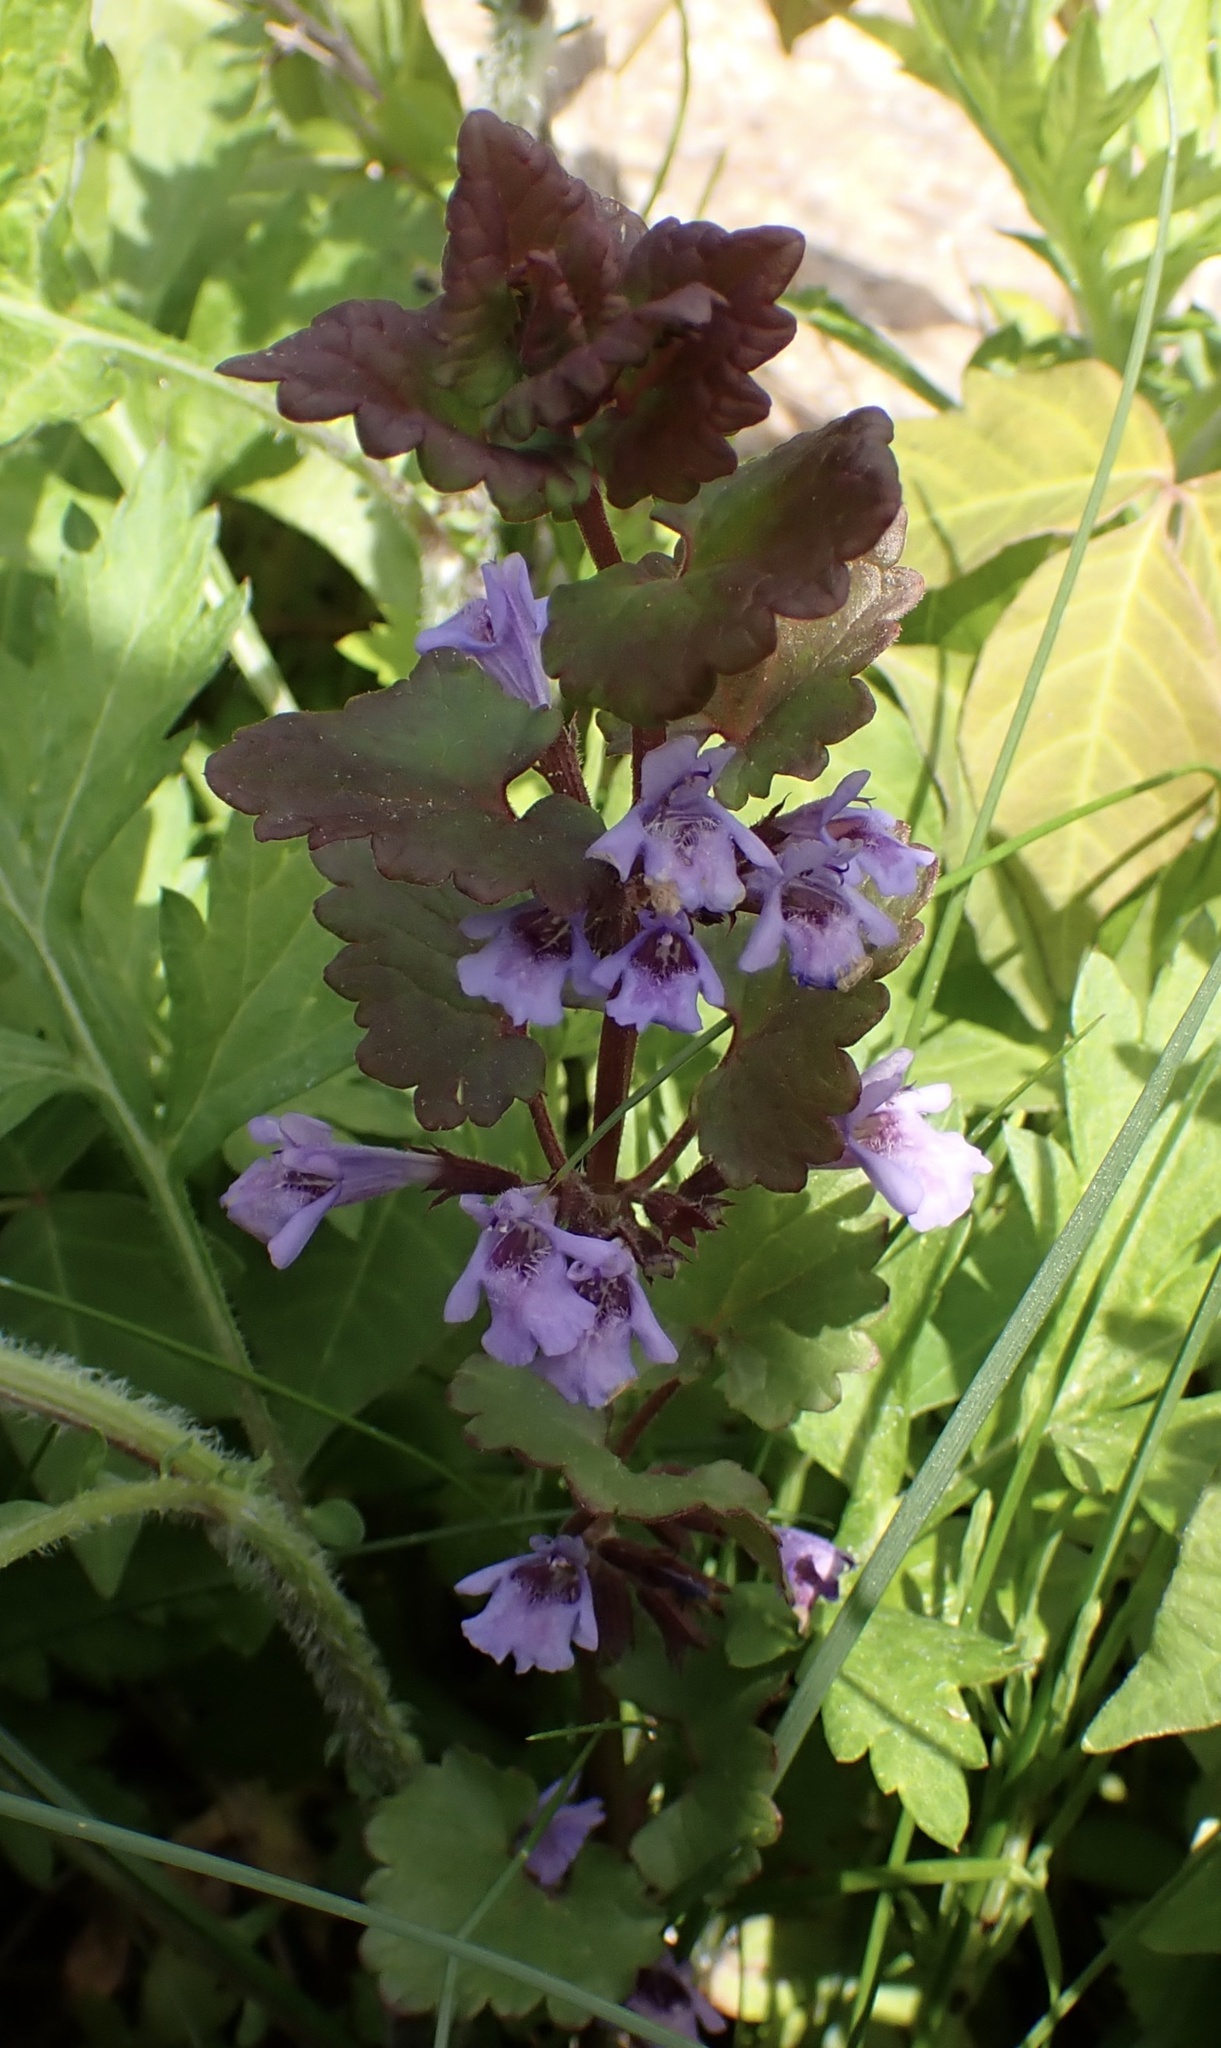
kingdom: Plantae
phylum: Tracheophyta
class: Magnoliopsida
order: Lamiales
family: Lamiaceae
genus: Glechoma
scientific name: Glechoma hederacea
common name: Ground ivy
